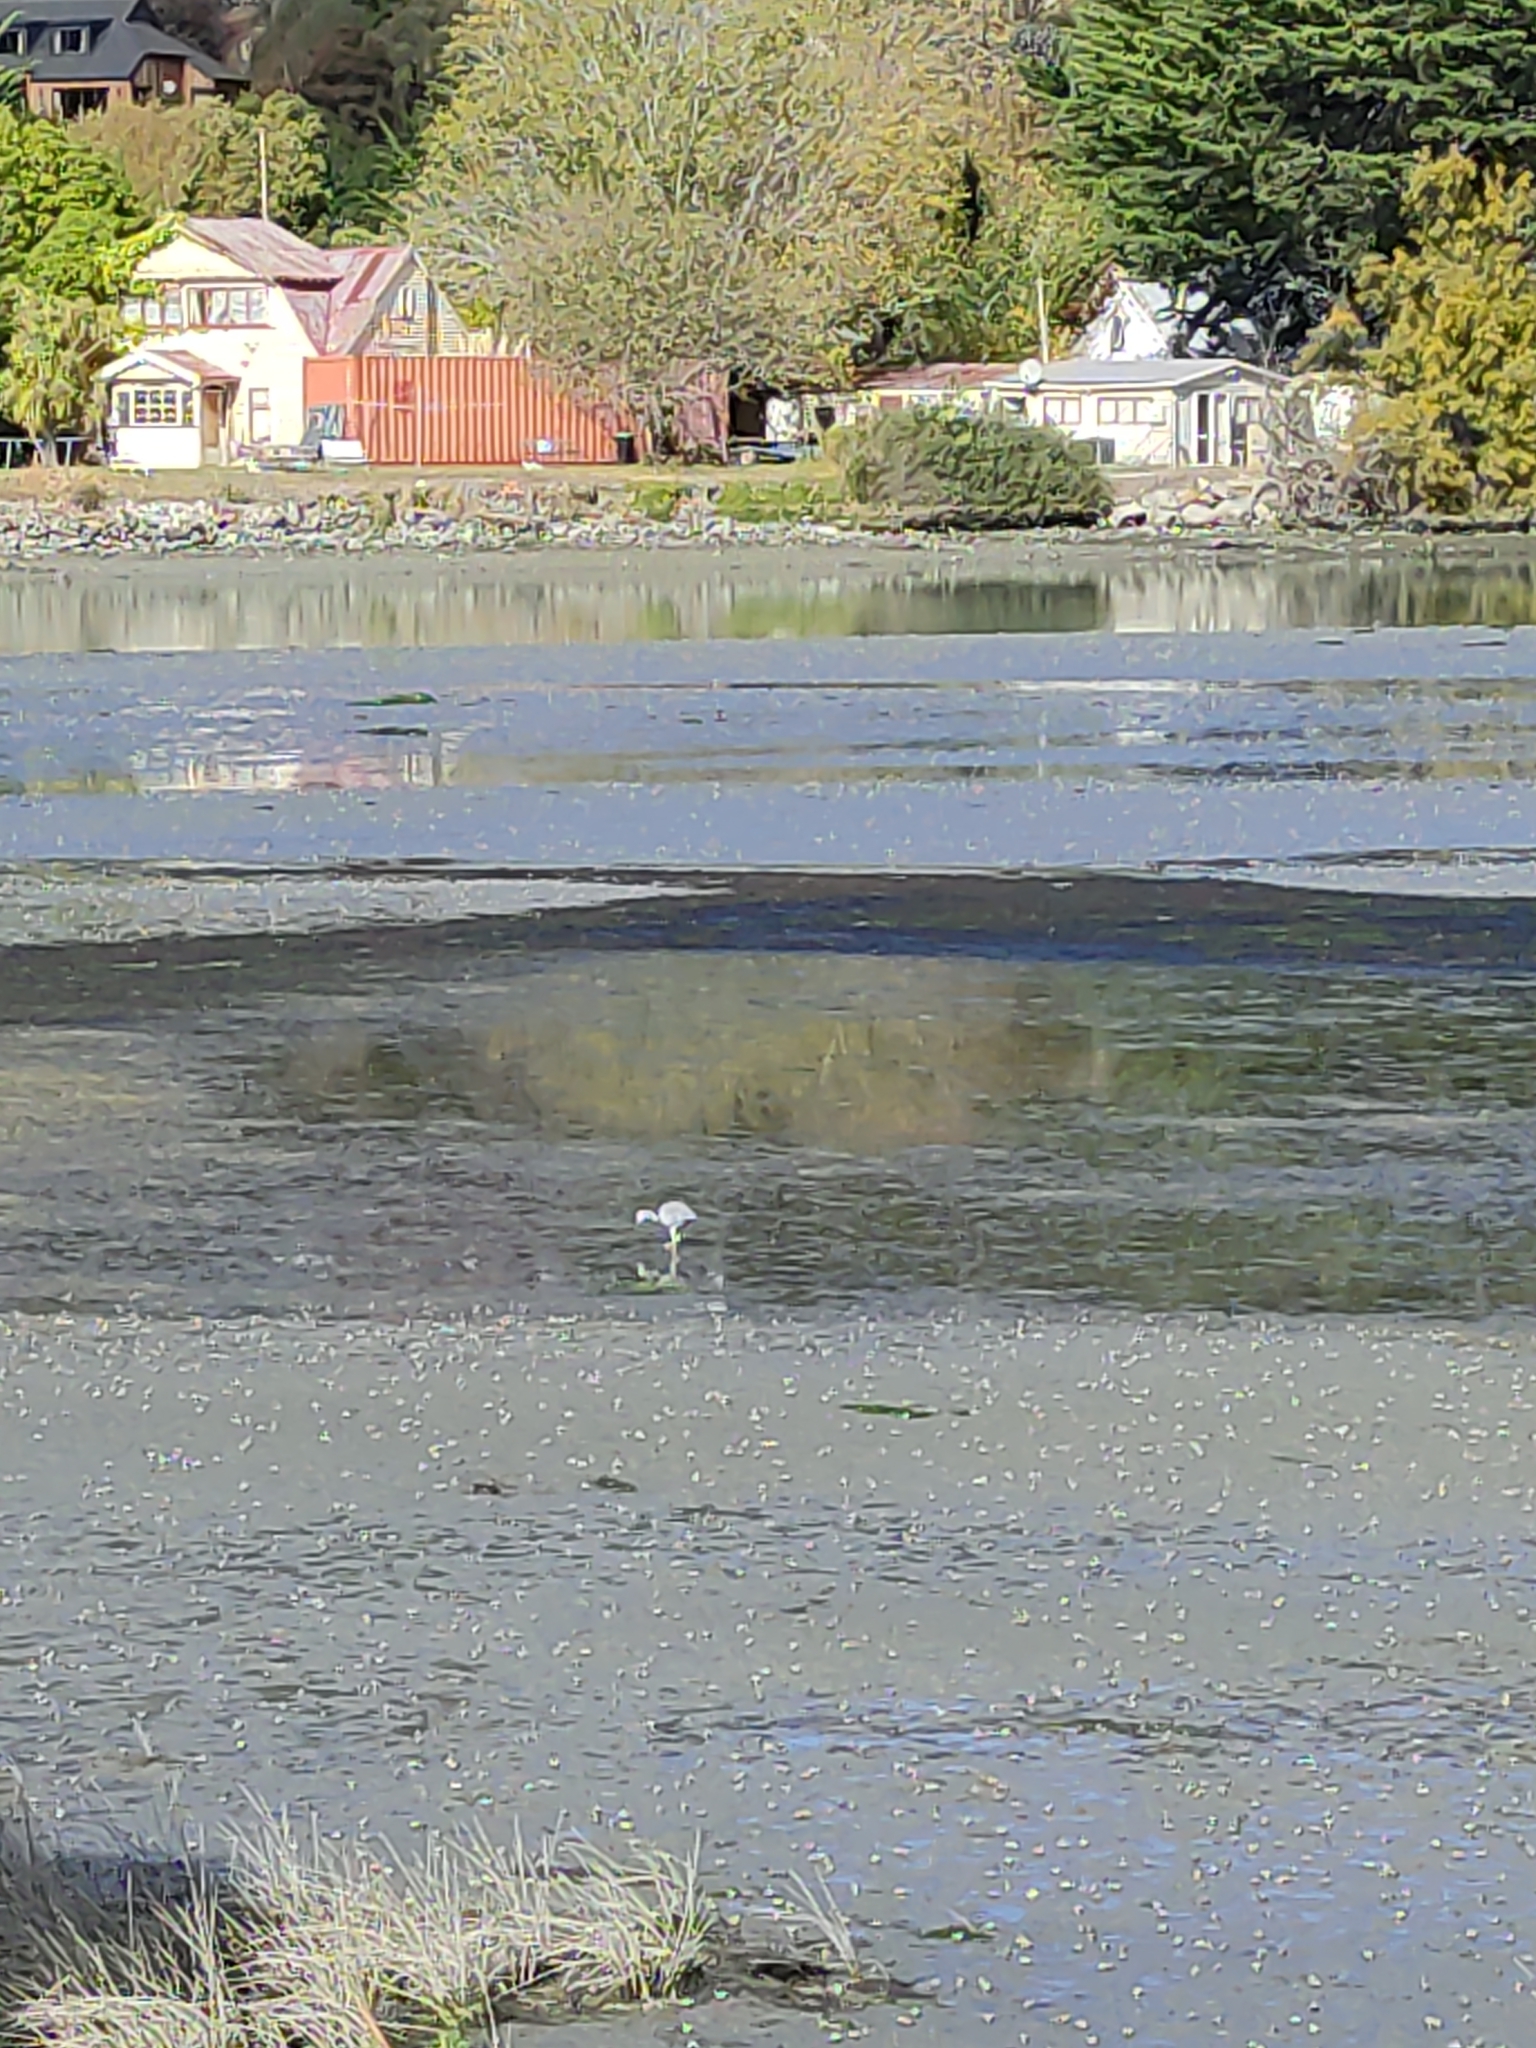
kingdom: Animalia
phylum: Chordata
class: Aves
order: Pelecaniformes
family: Ardeidae
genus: Egretta
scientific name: Egretta novaehollandiae
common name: White-faced heron
